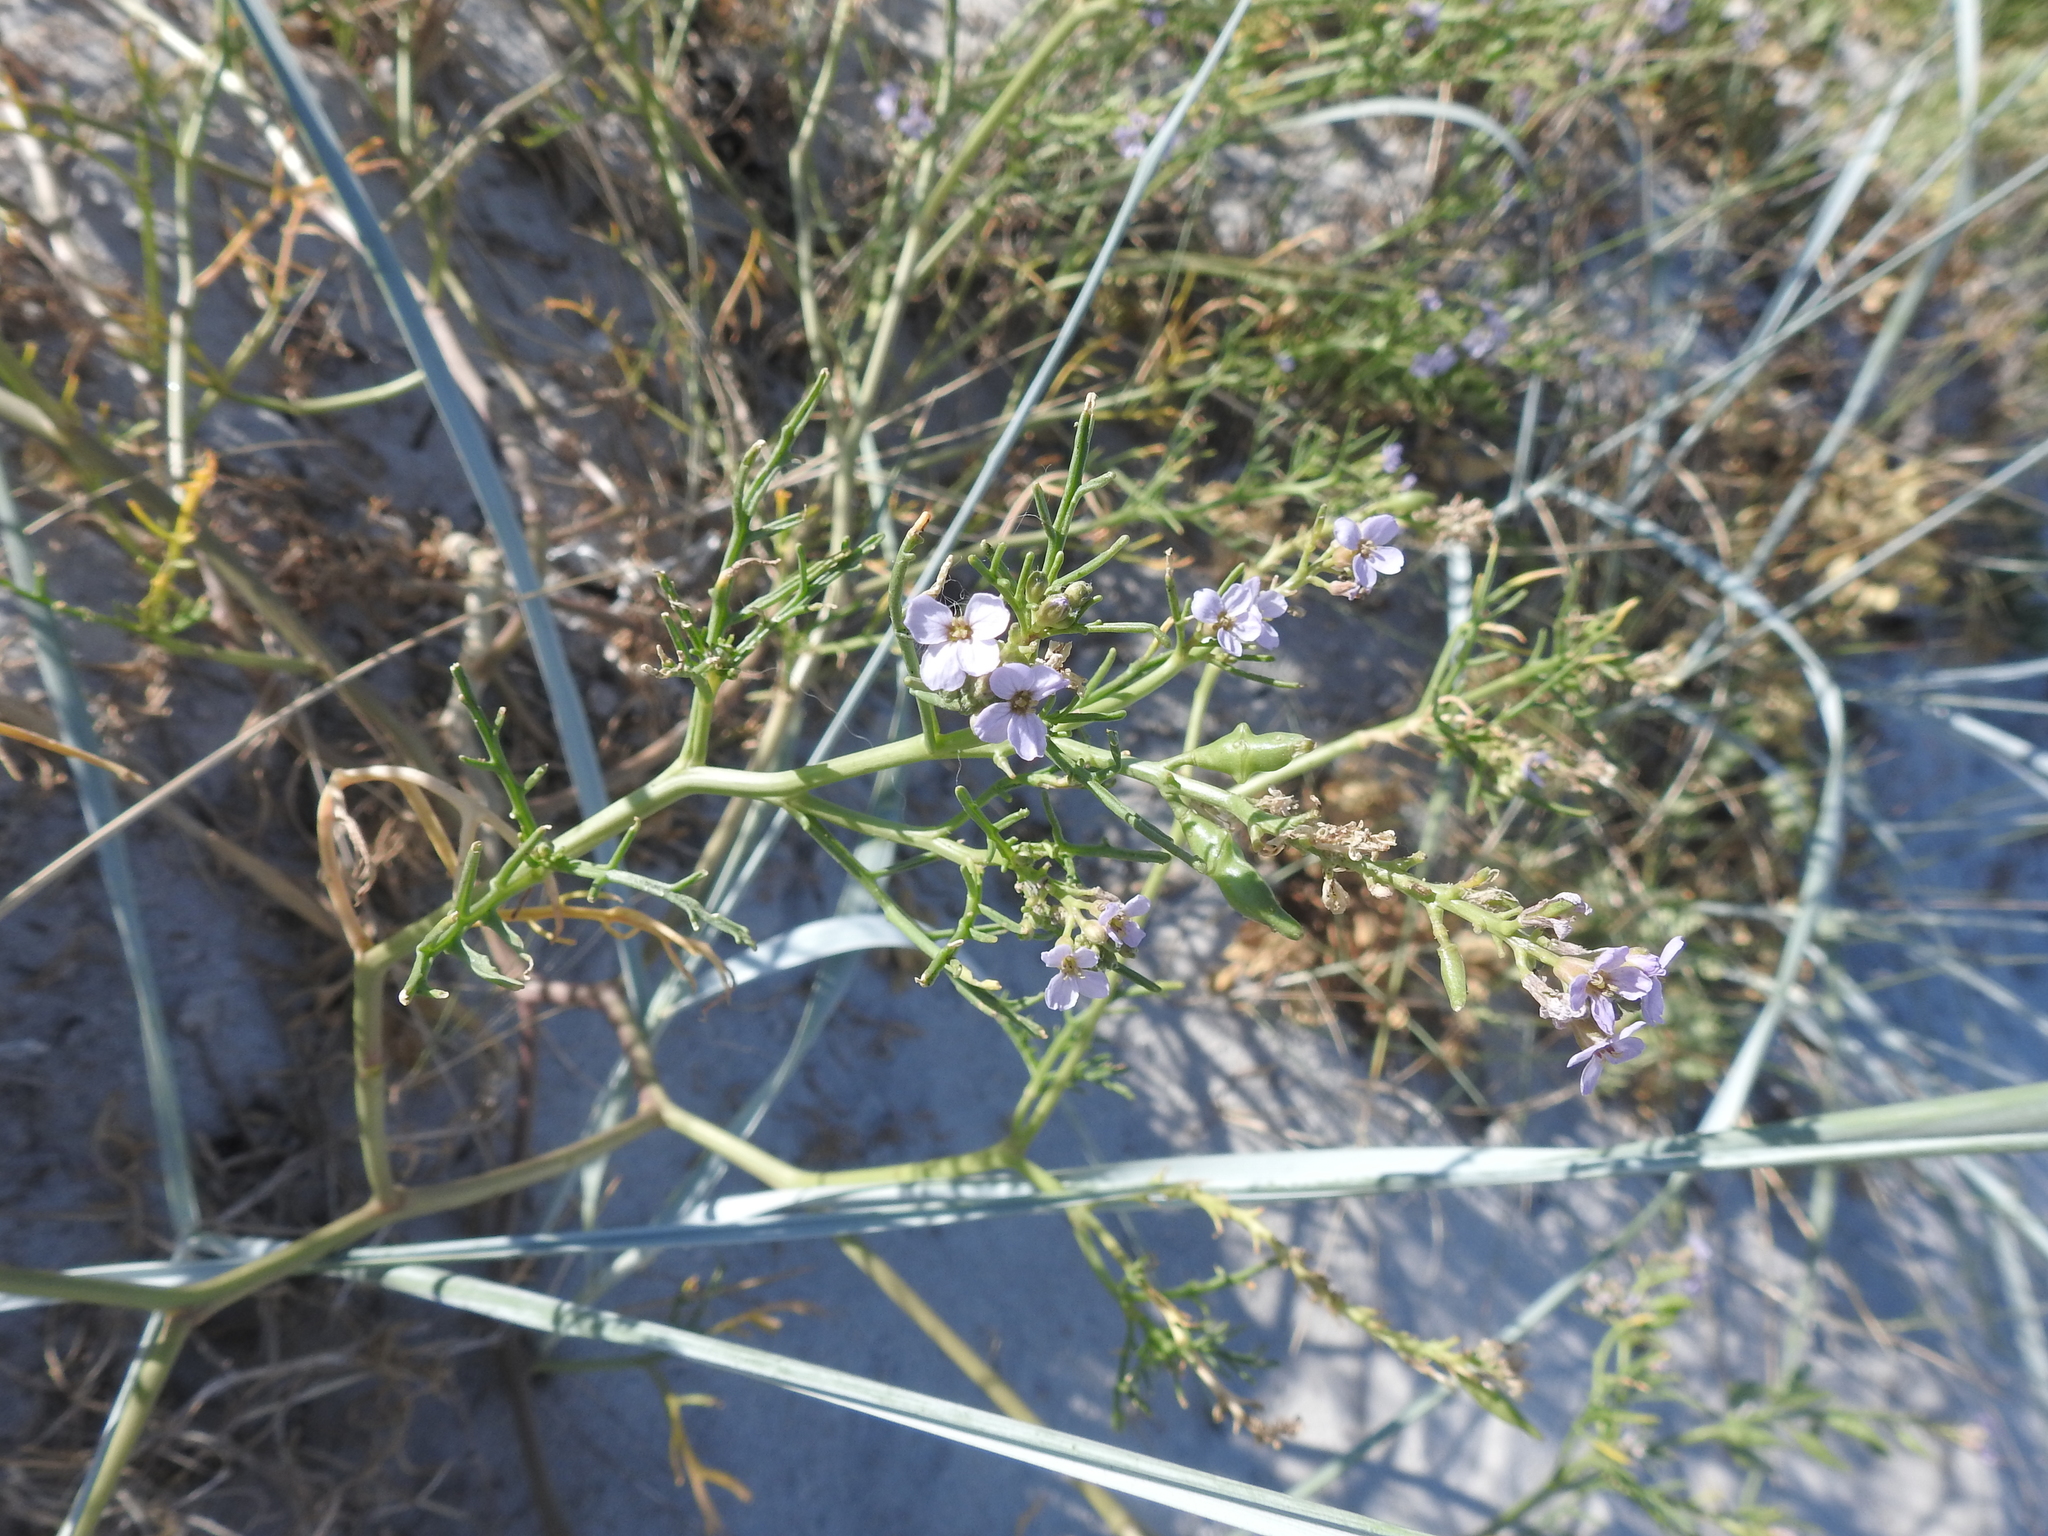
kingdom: Plantae
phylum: Tracheophyta
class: Magnoliopsida
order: Brassicales
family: Brassicaceae
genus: Cakile
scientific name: Cakile maritima
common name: Sea rocket
